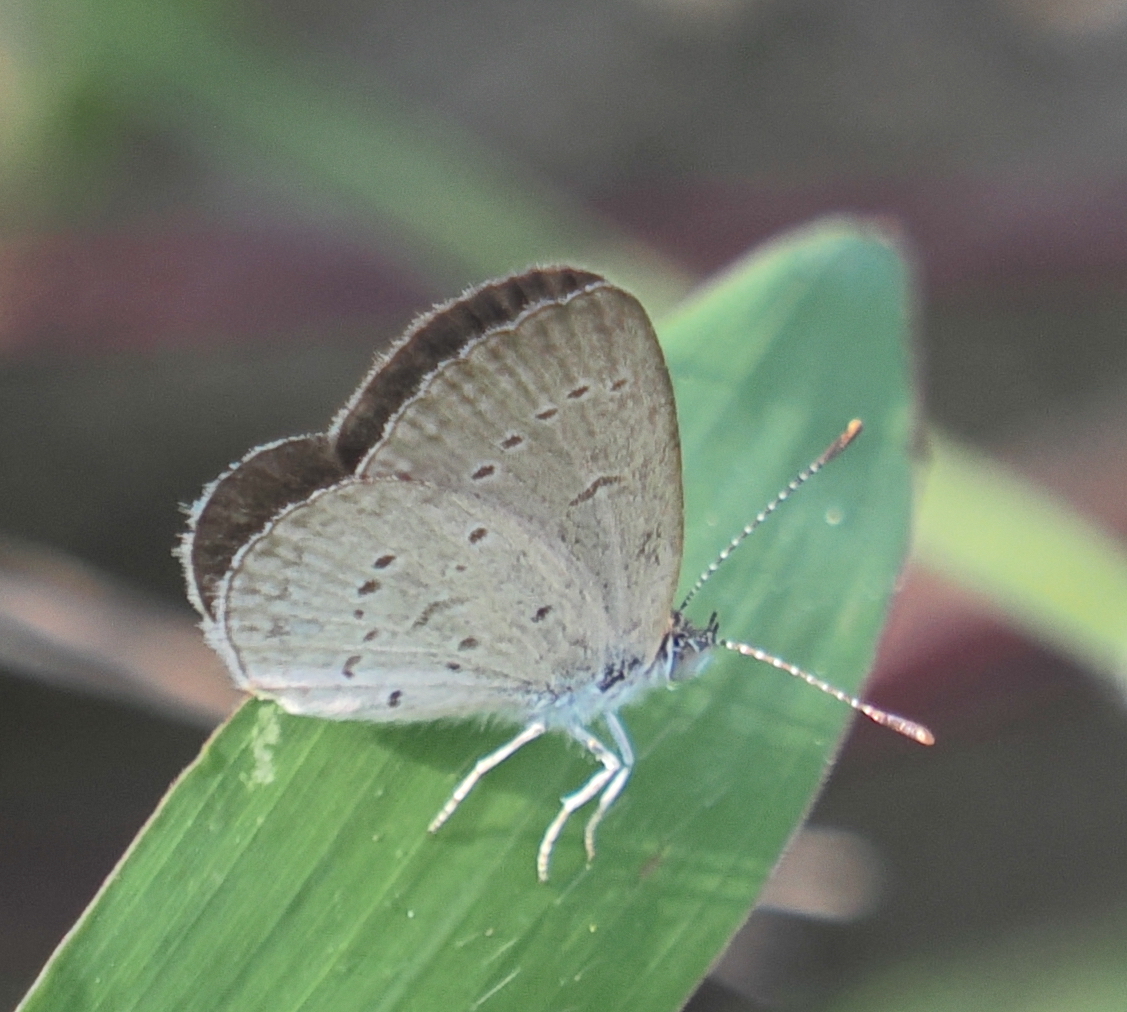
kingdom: Animalia
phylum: Arthropoda
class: Insecta
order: Lepidoptera
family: Lycaenidae
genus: Zizina
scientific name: Zizina otis
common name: Lesser grass blue
